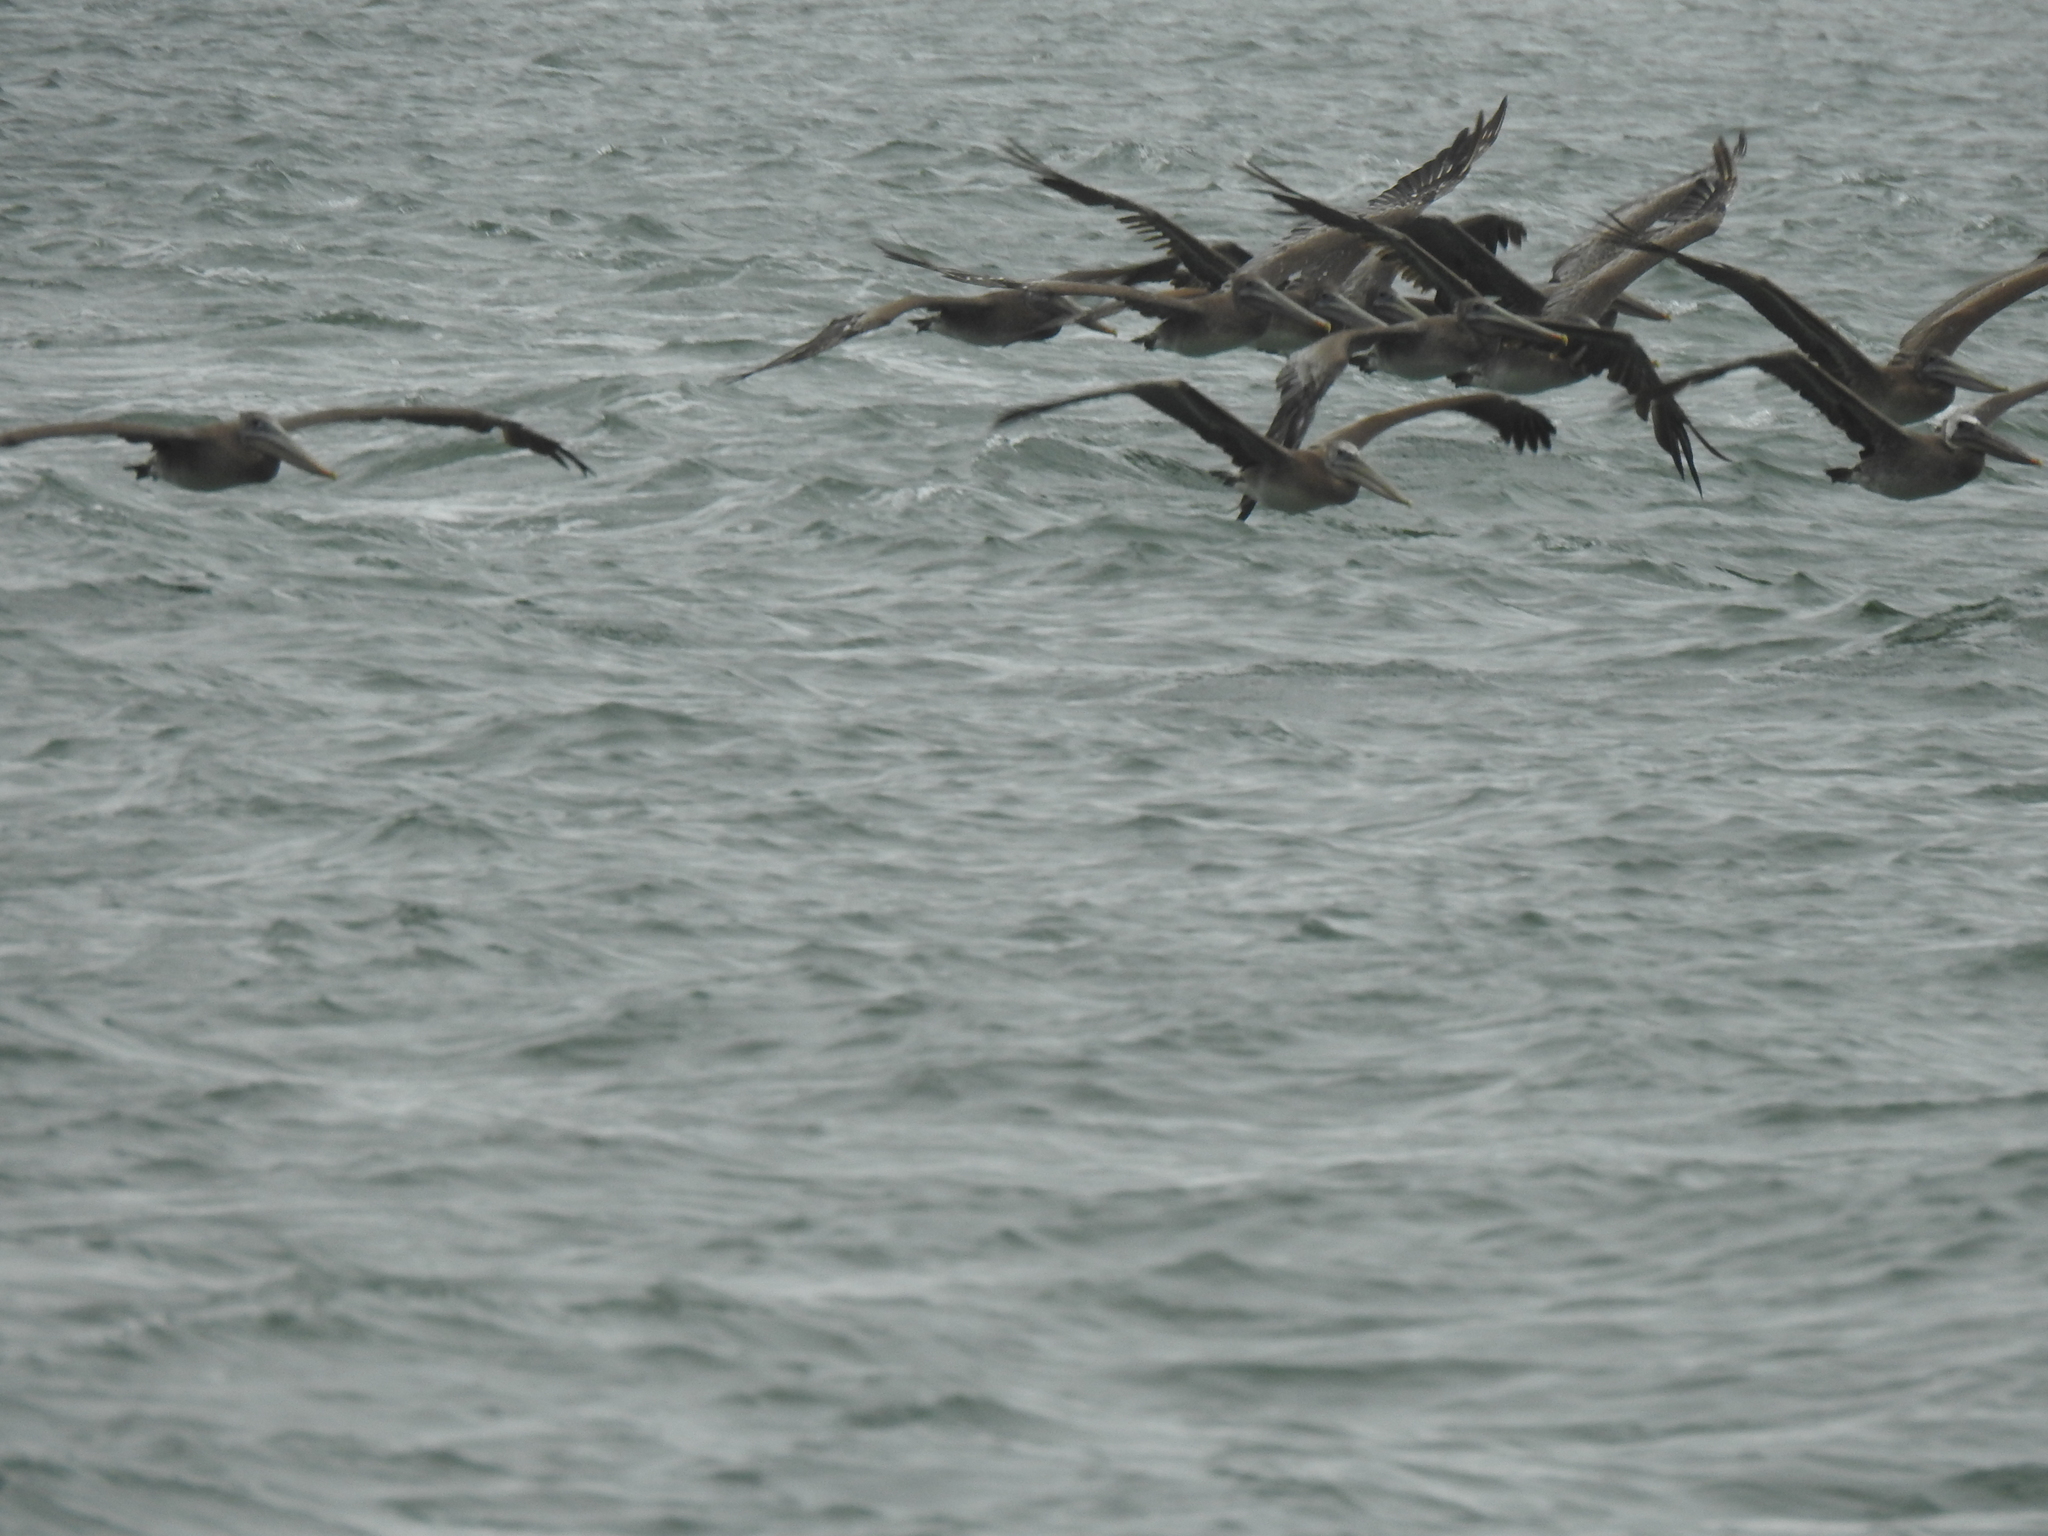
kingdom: Animalia
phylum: Chordata
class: Aves
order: Pelecaniformes
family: Pelecanidae
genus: Pelecanus
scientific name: Pelecanus occidentalis
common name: Brown pelican
